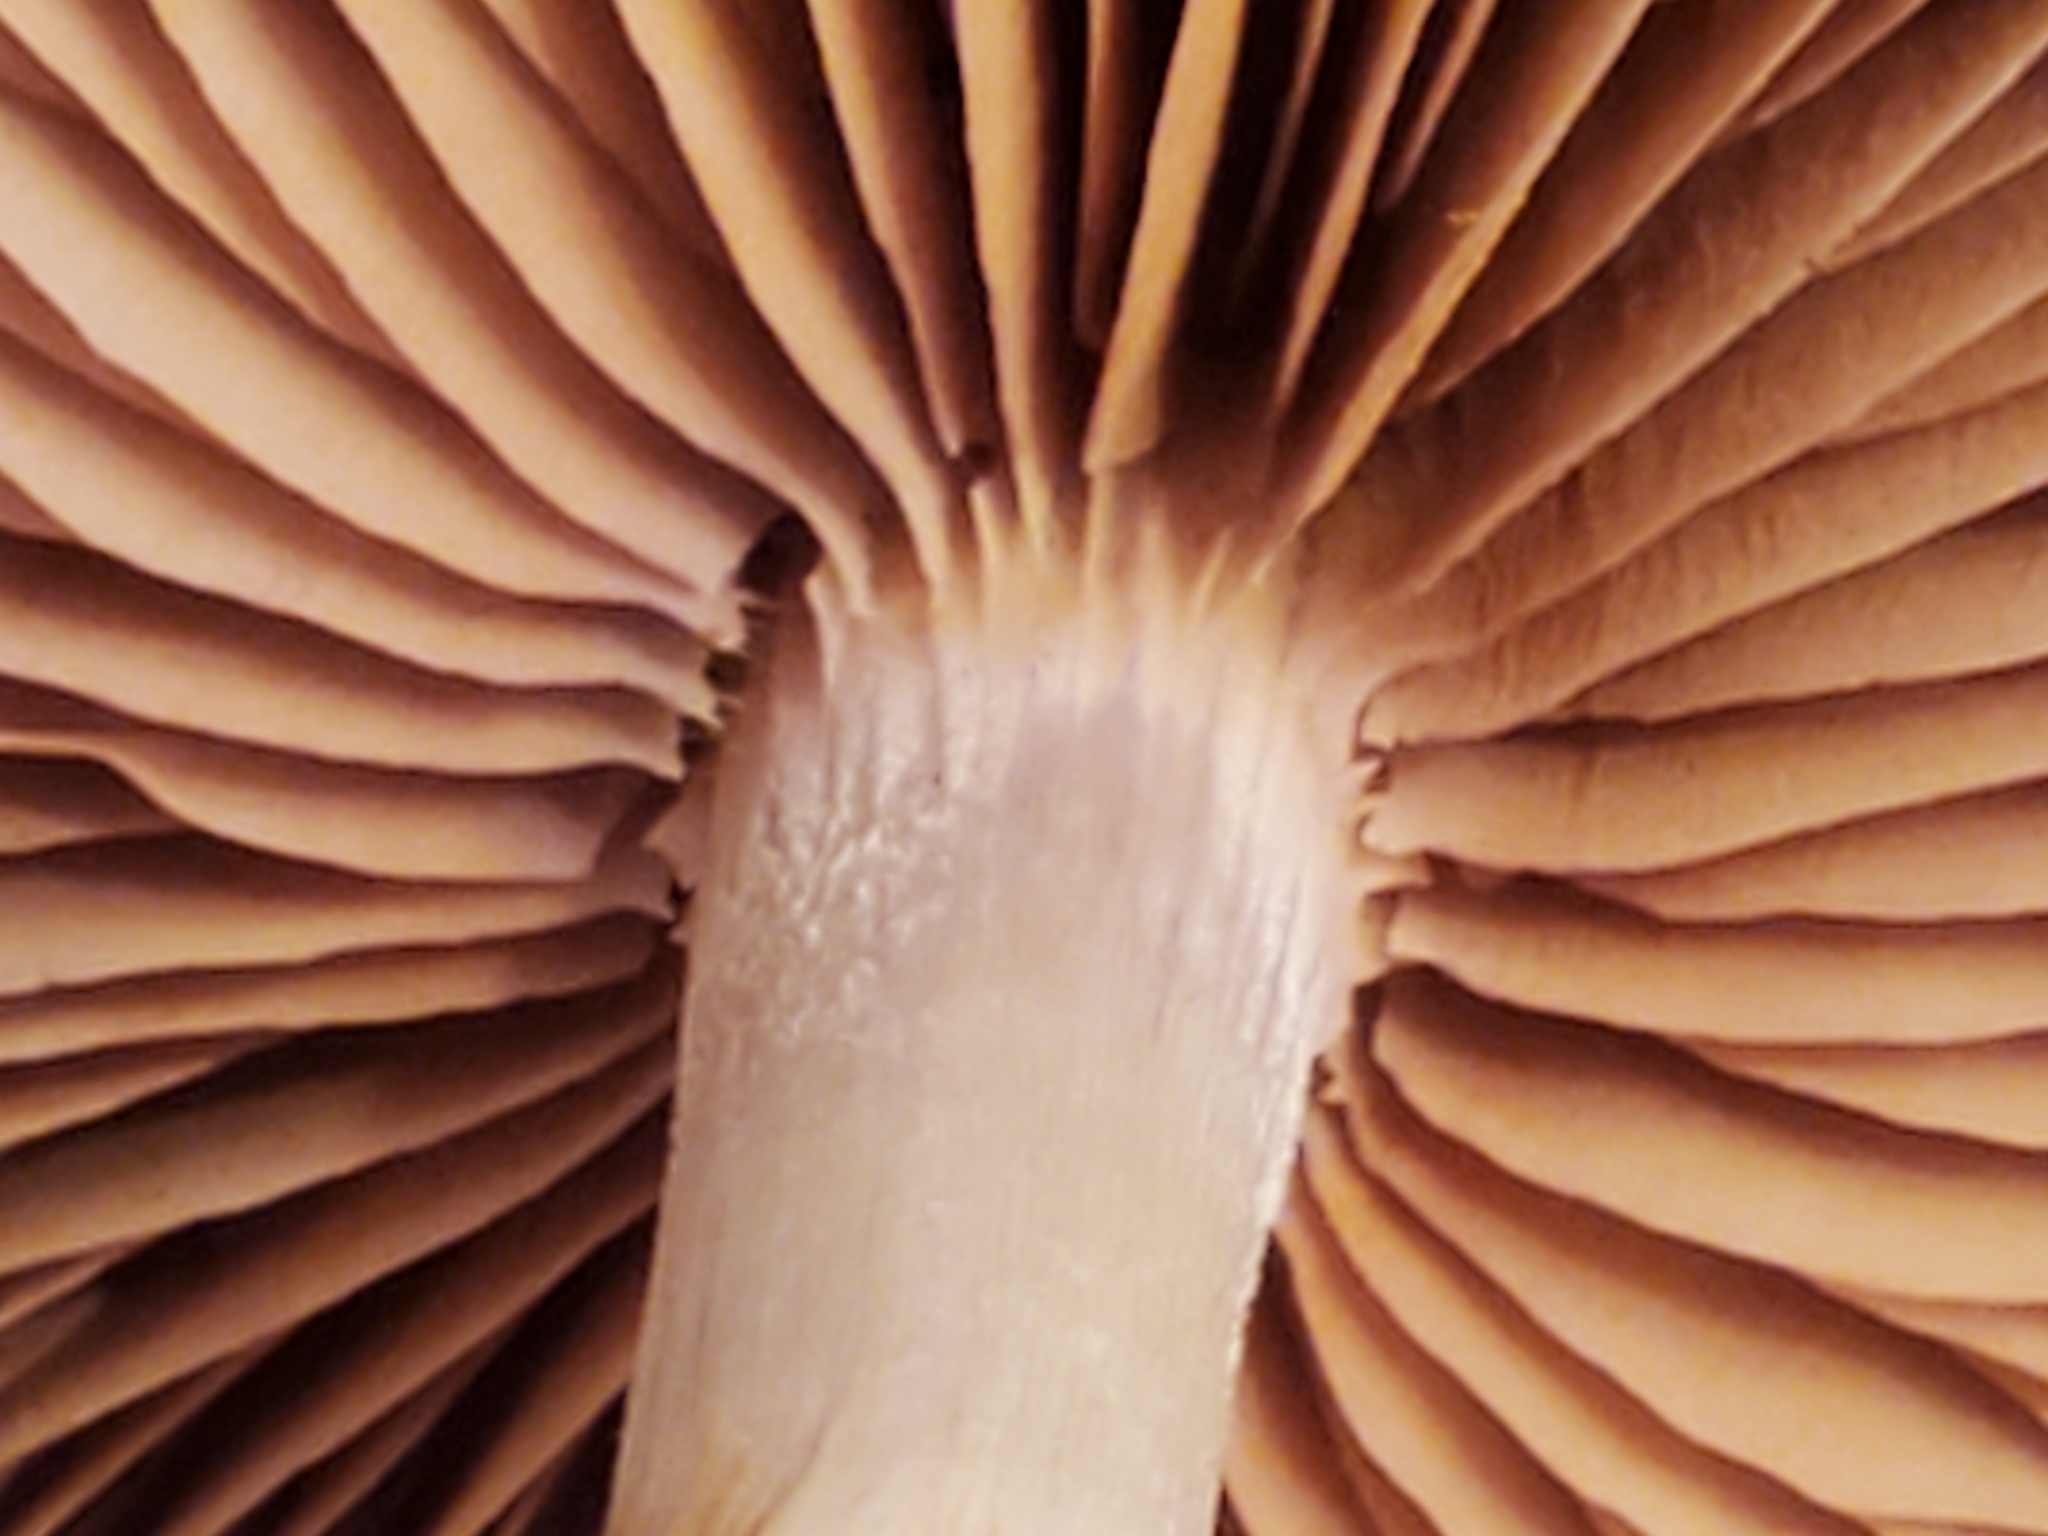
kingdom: Fungi
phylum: Basidiomycota
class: Agaricomycetes
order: Agaricales
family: Cortinariaceae
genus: Cortinarius
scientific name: Cortinarius iodes
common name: Viscid violet cort
